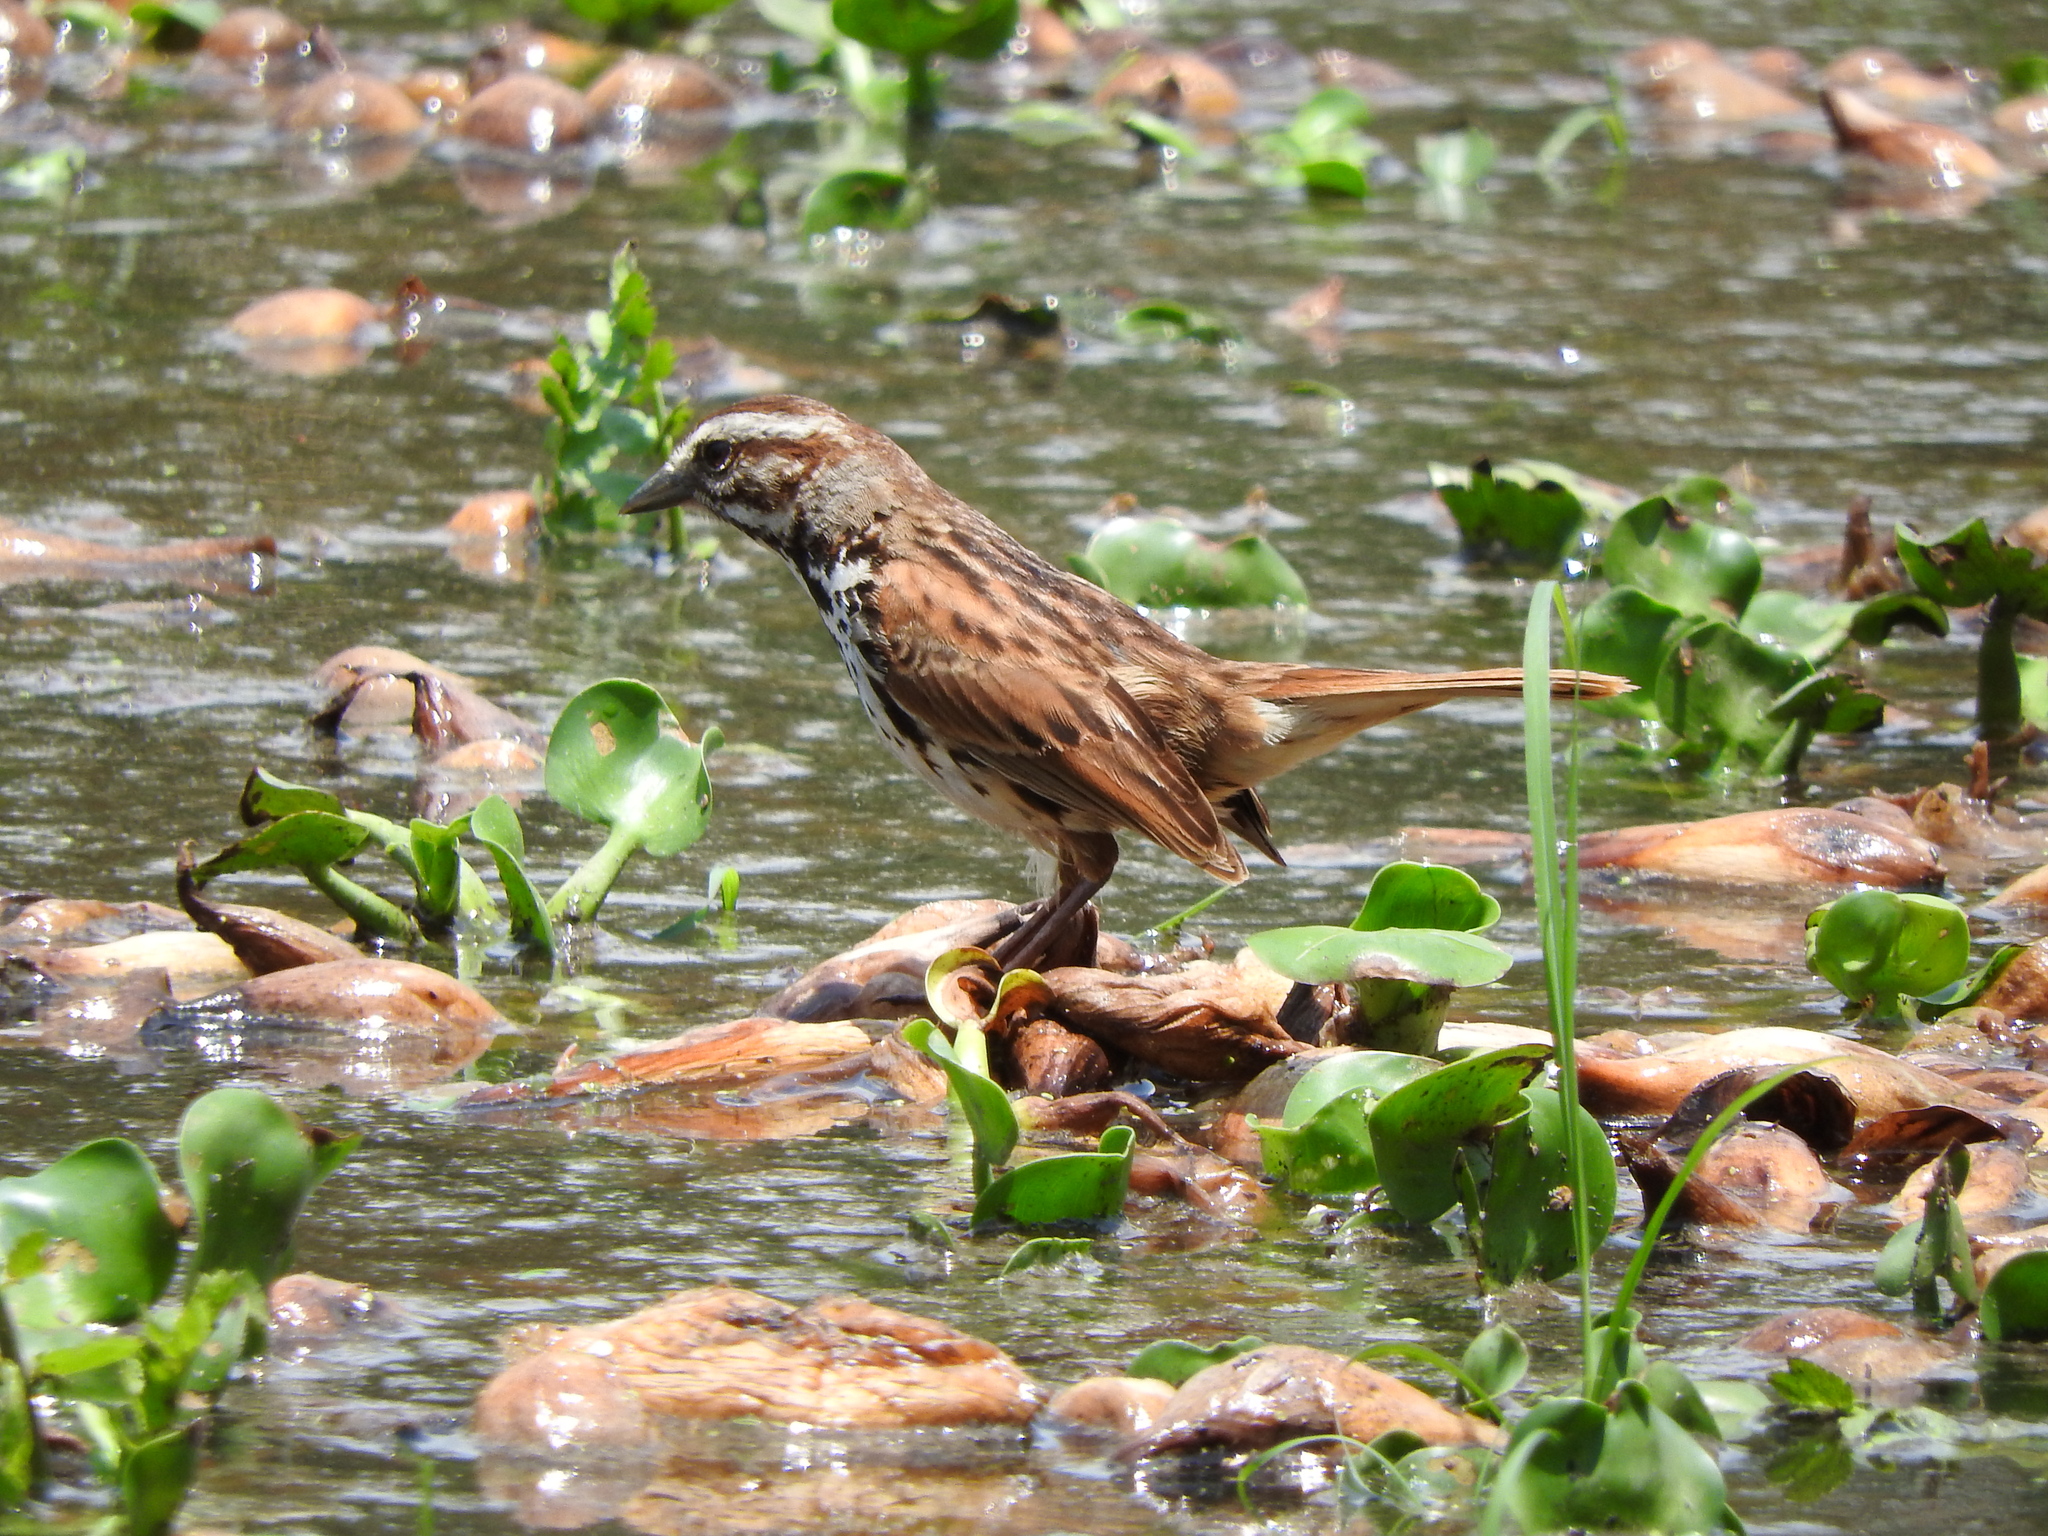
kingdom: Animalia
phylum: Chordata
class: Aves
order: Passeriformes
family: Passerellidae
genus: Melospiza
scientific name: Melospiza melodia
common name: Song sparrow
